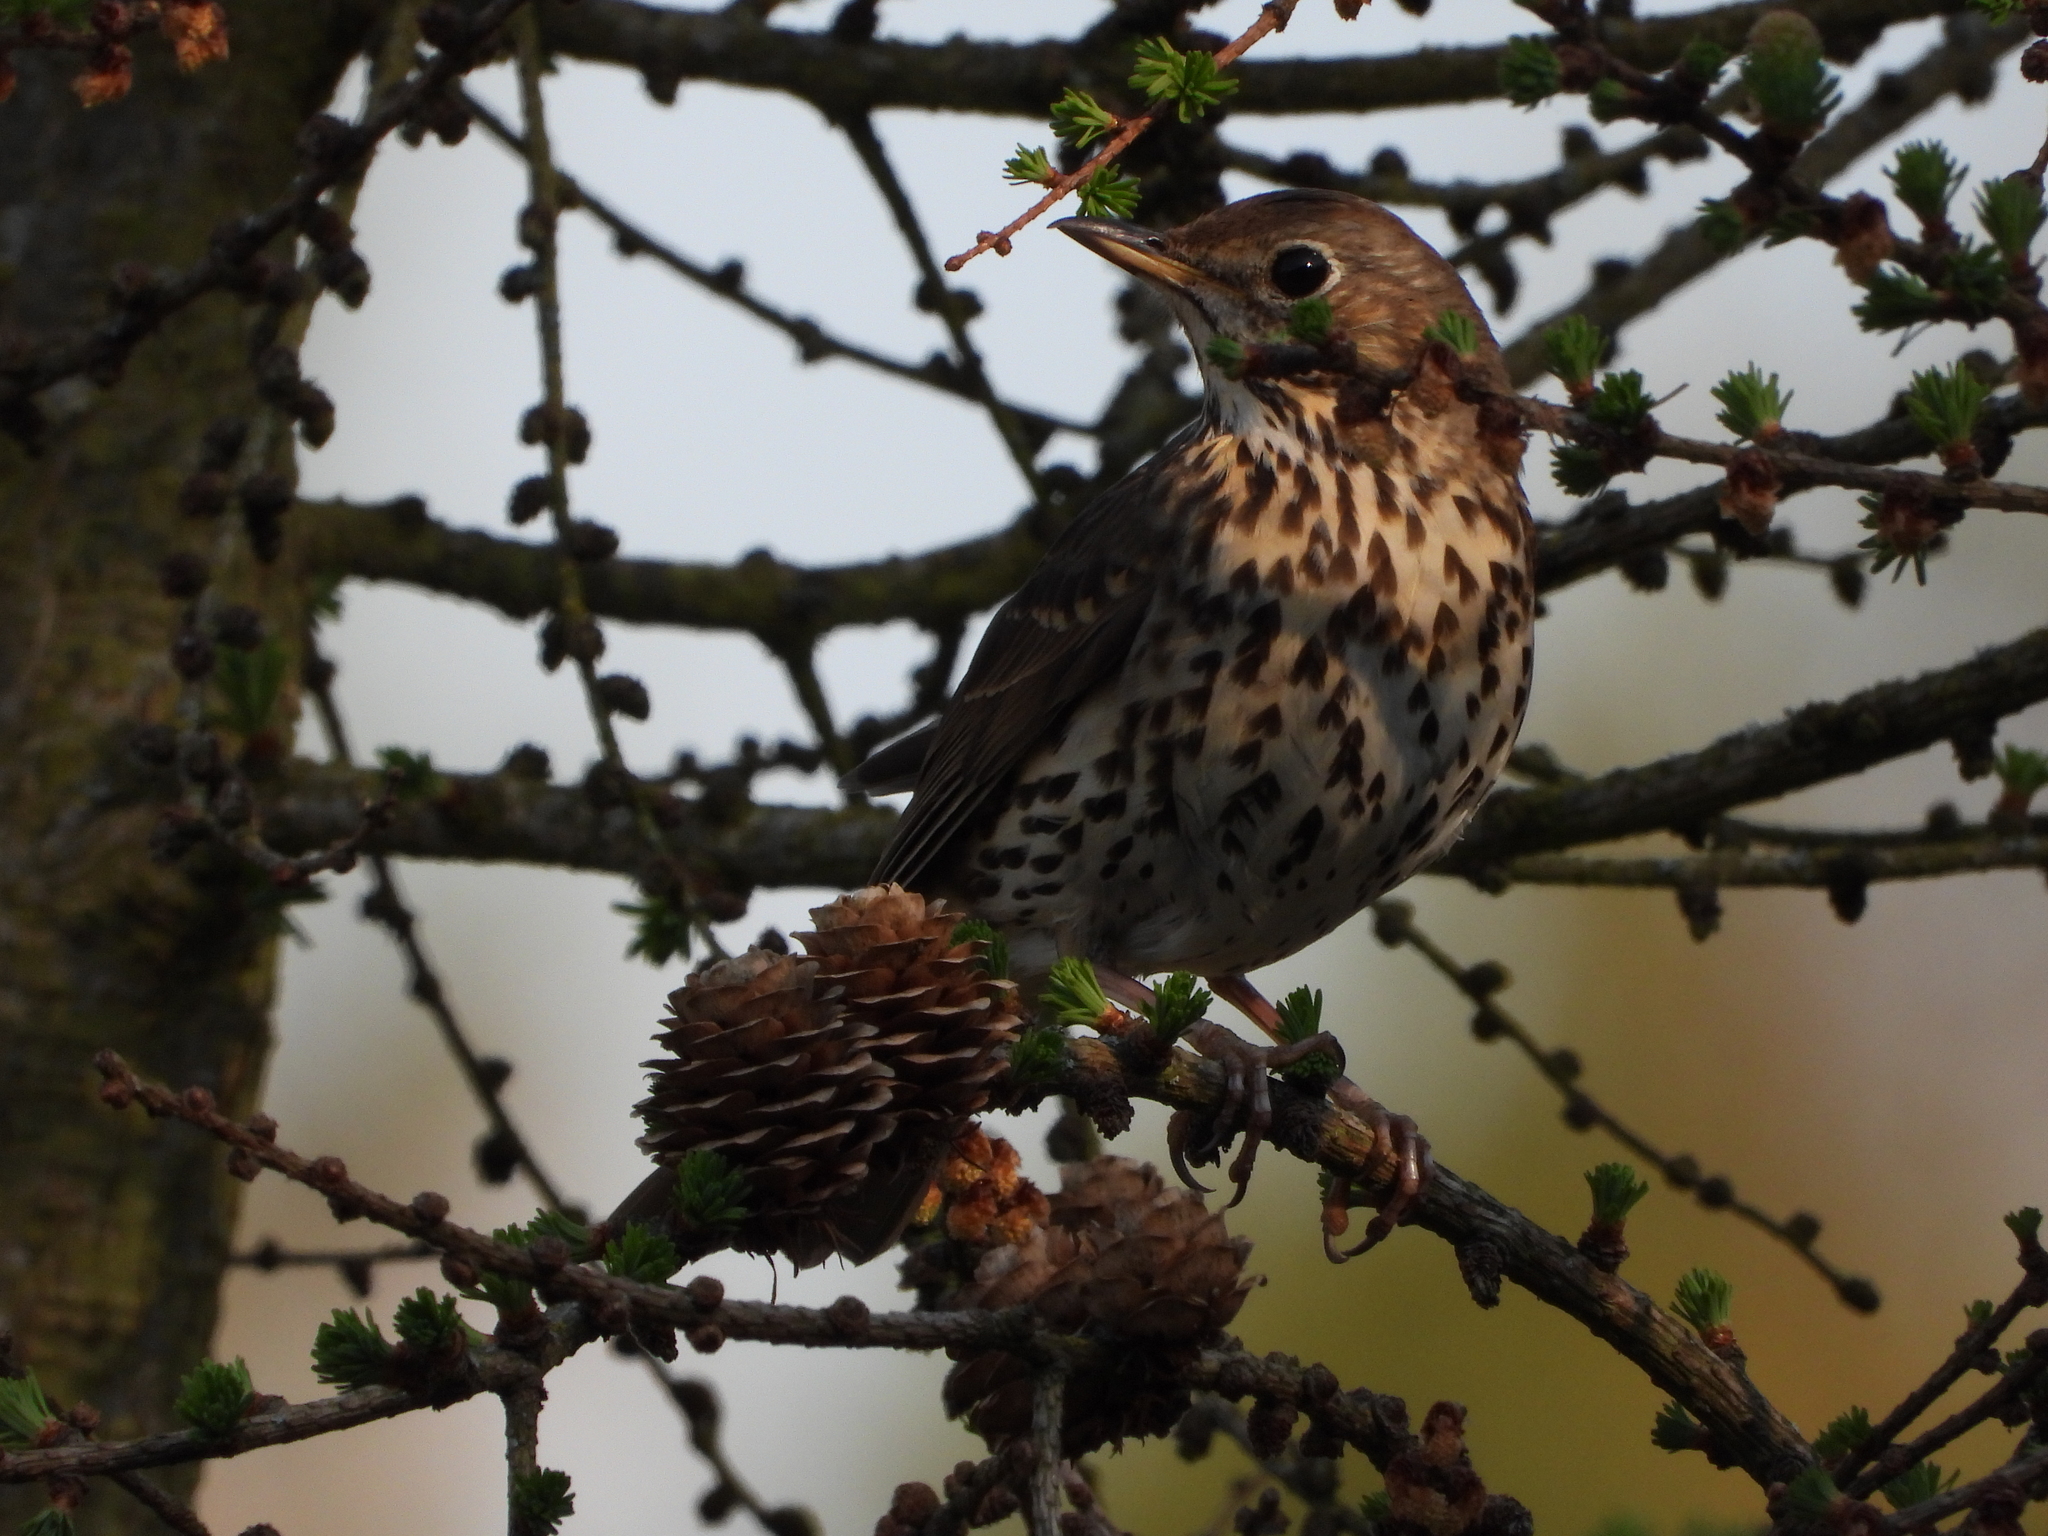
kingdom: Animalia
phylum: Chordata
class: Aves
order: Passeriformes
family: Turdidae
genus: Turdus
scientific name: Turdus philomelos
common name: Song thrush
